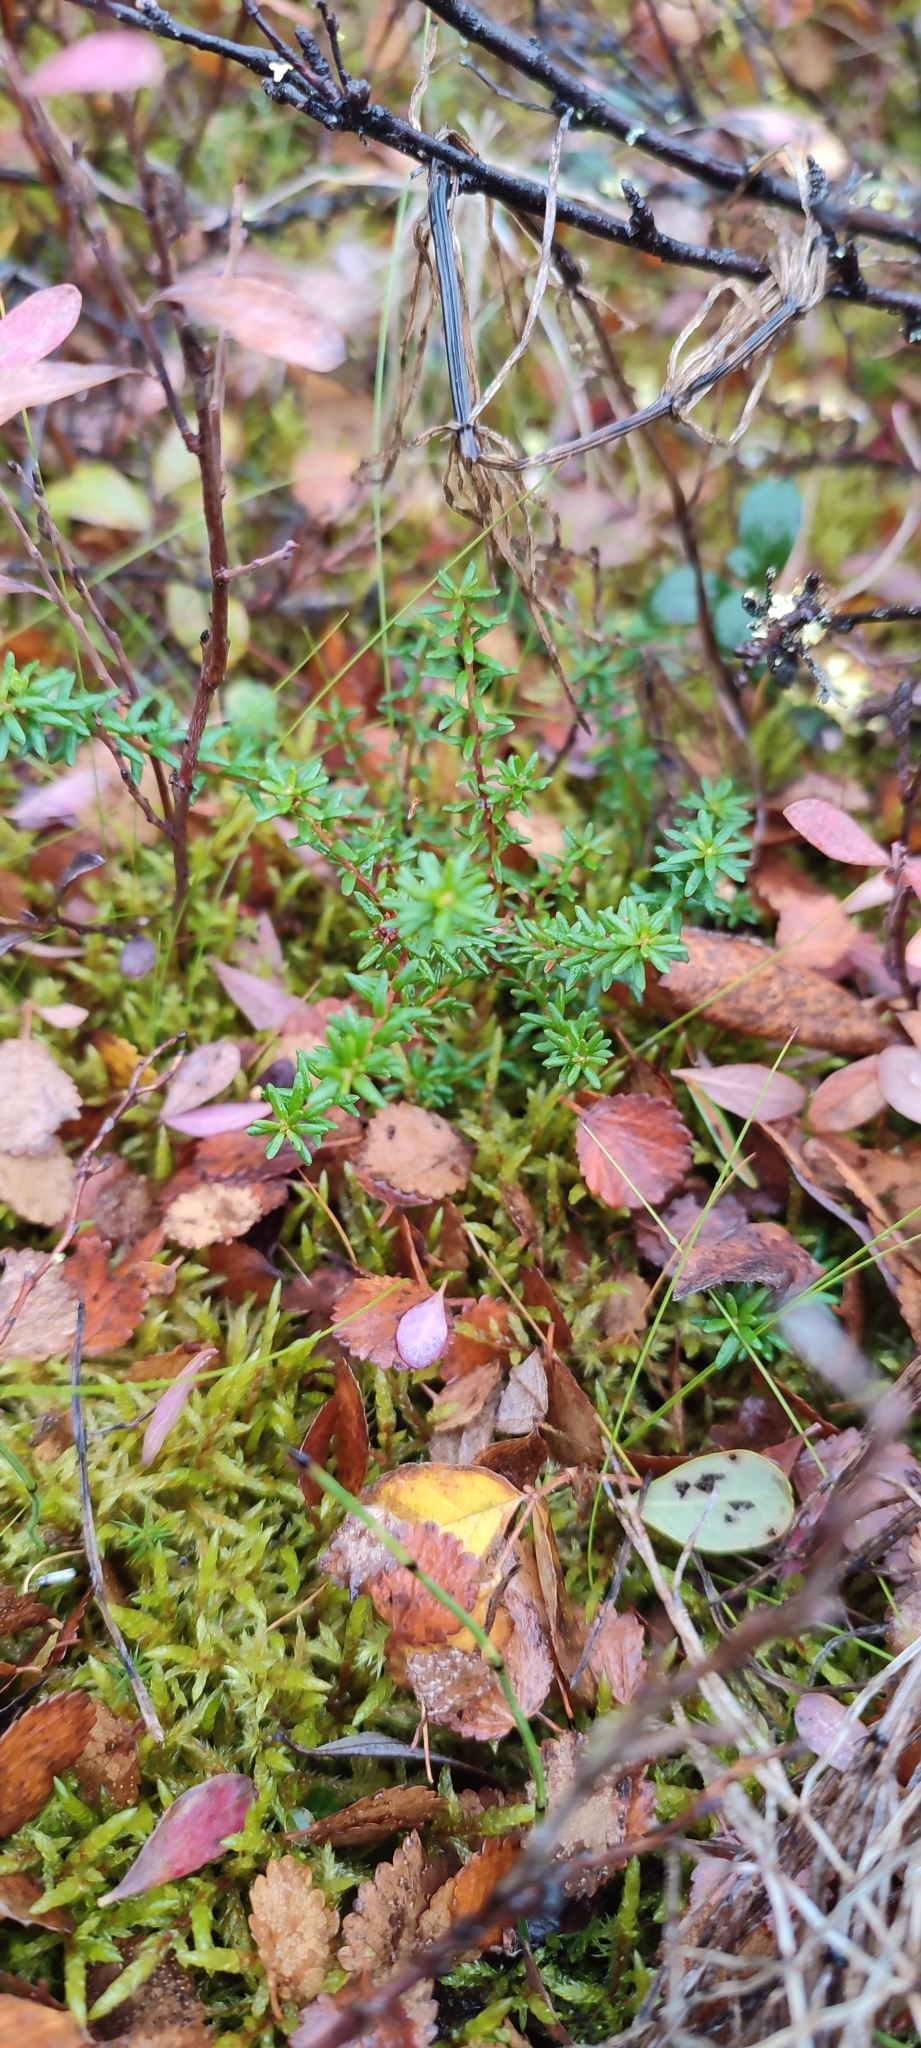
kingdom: Plantae
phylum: Tracheophyta
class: Magnoliopsida
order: Ericales
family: Ericaceae
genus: Empetrum
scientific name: Empetrum nigrum
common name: Black crowberry
